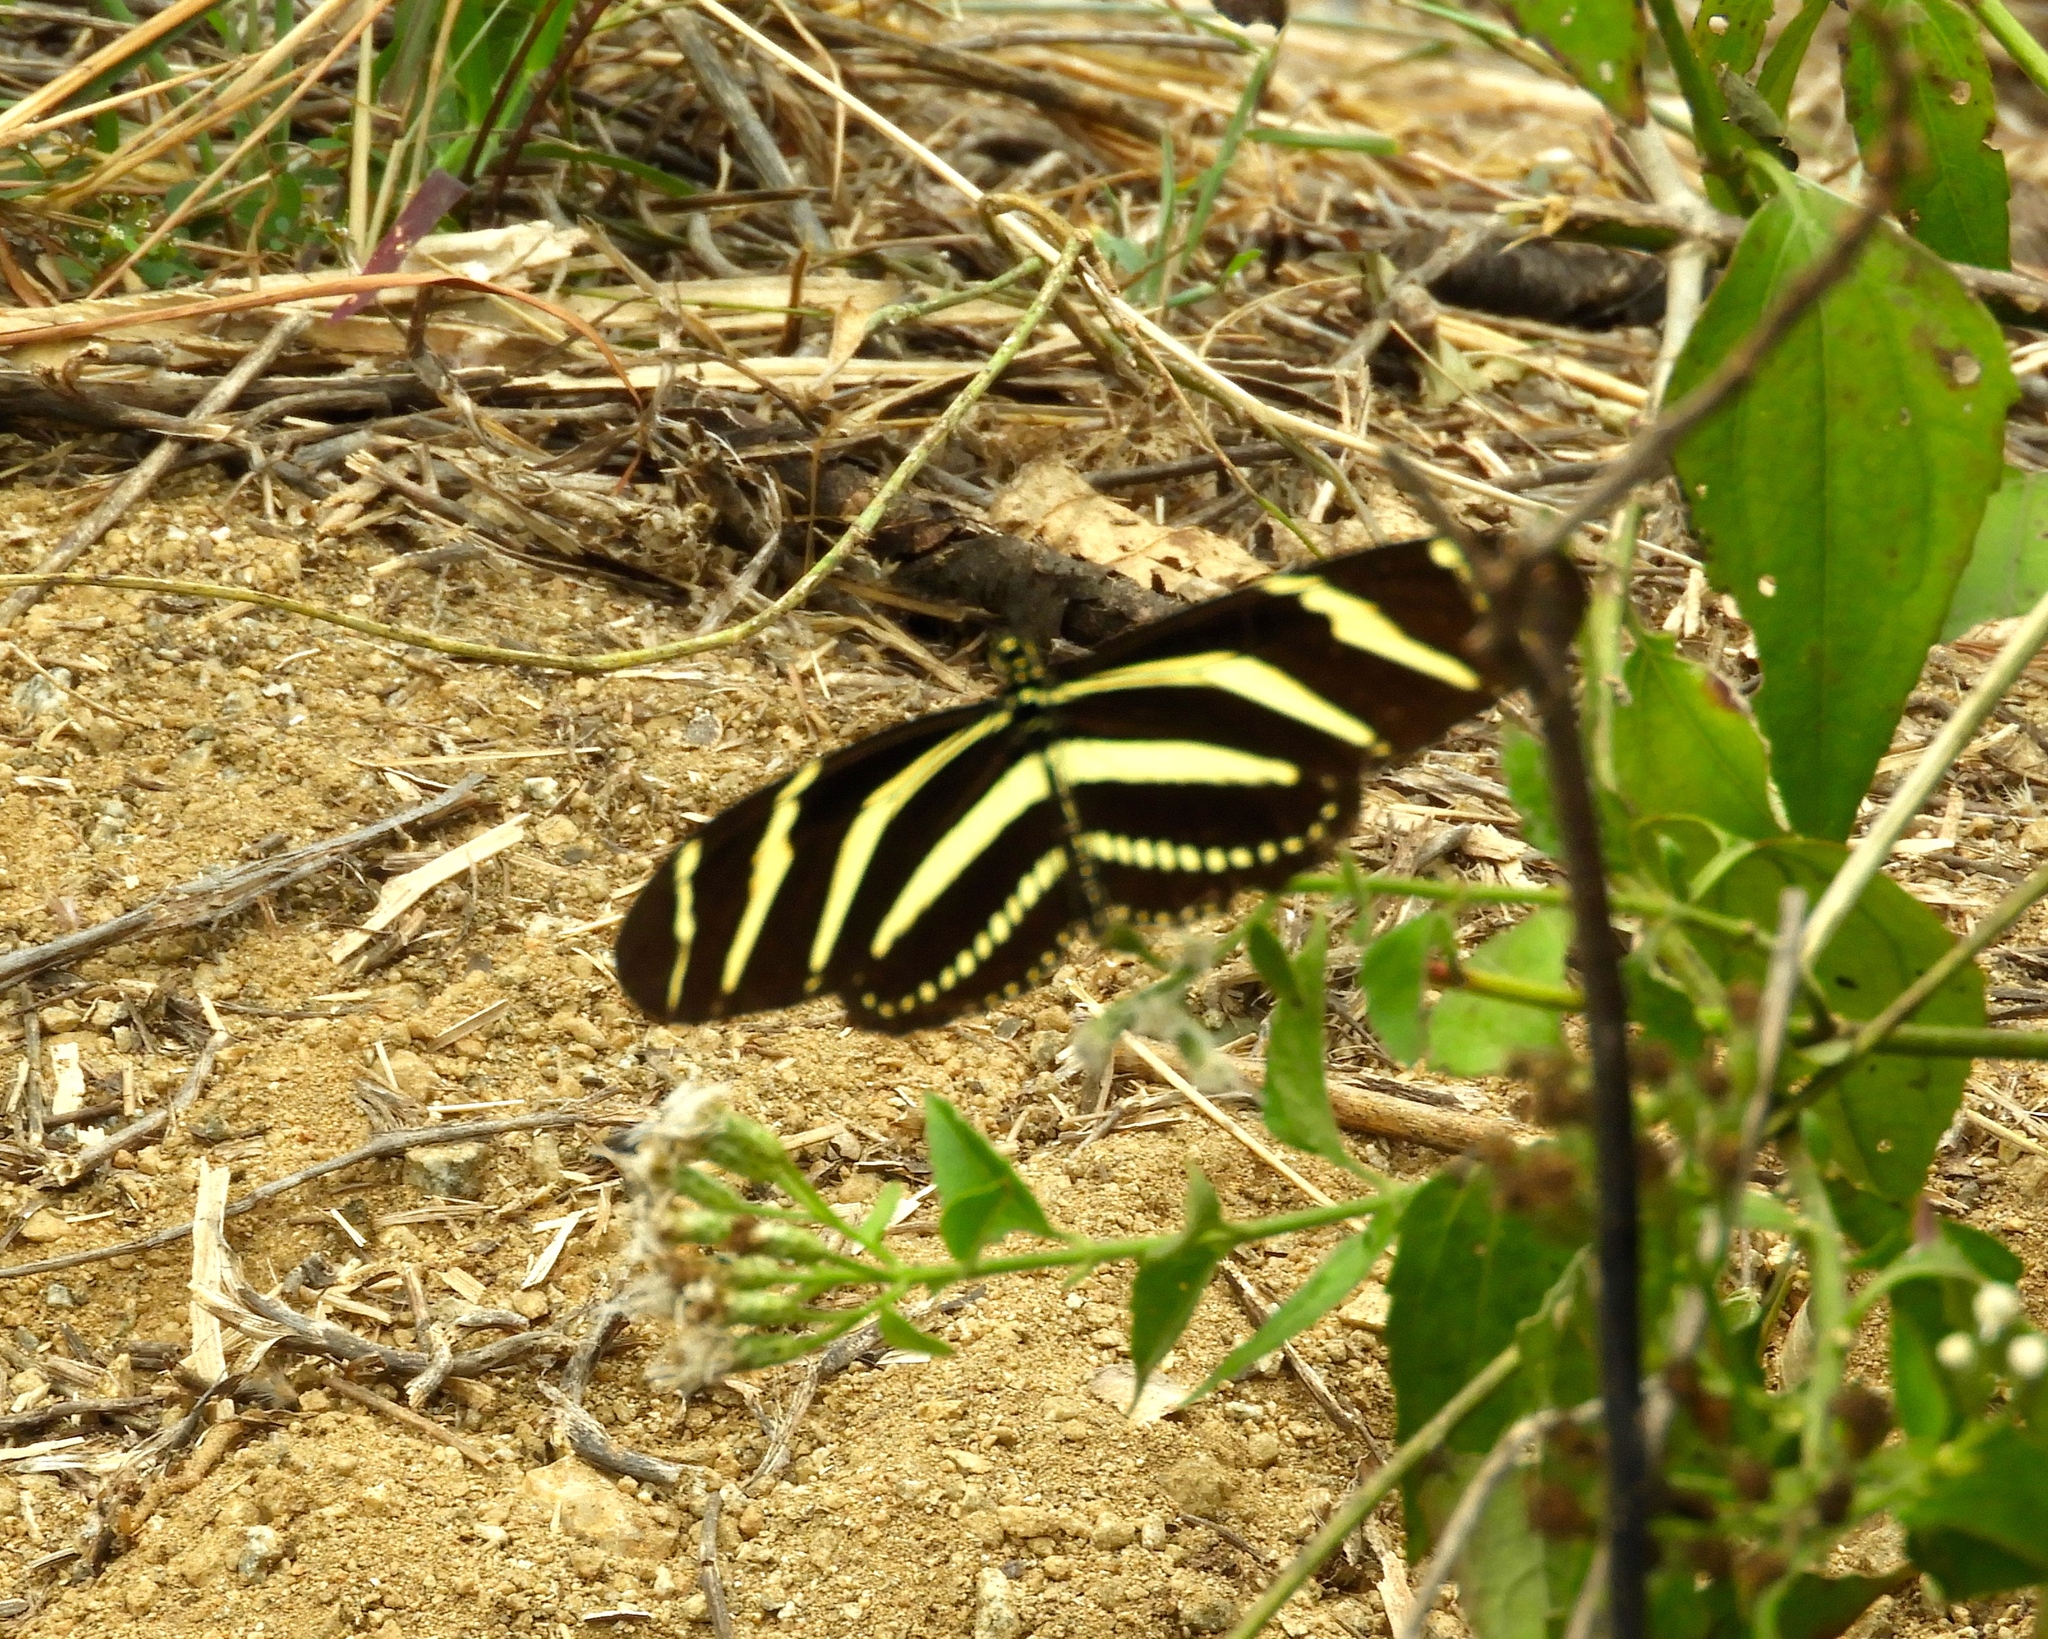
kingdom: Animalia
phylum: Arthropoda
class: Insecta
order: Lepidoptera
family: Nymphalidae
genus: Heliconius
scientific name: Heliconius charithonia
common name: Zebra long wing
